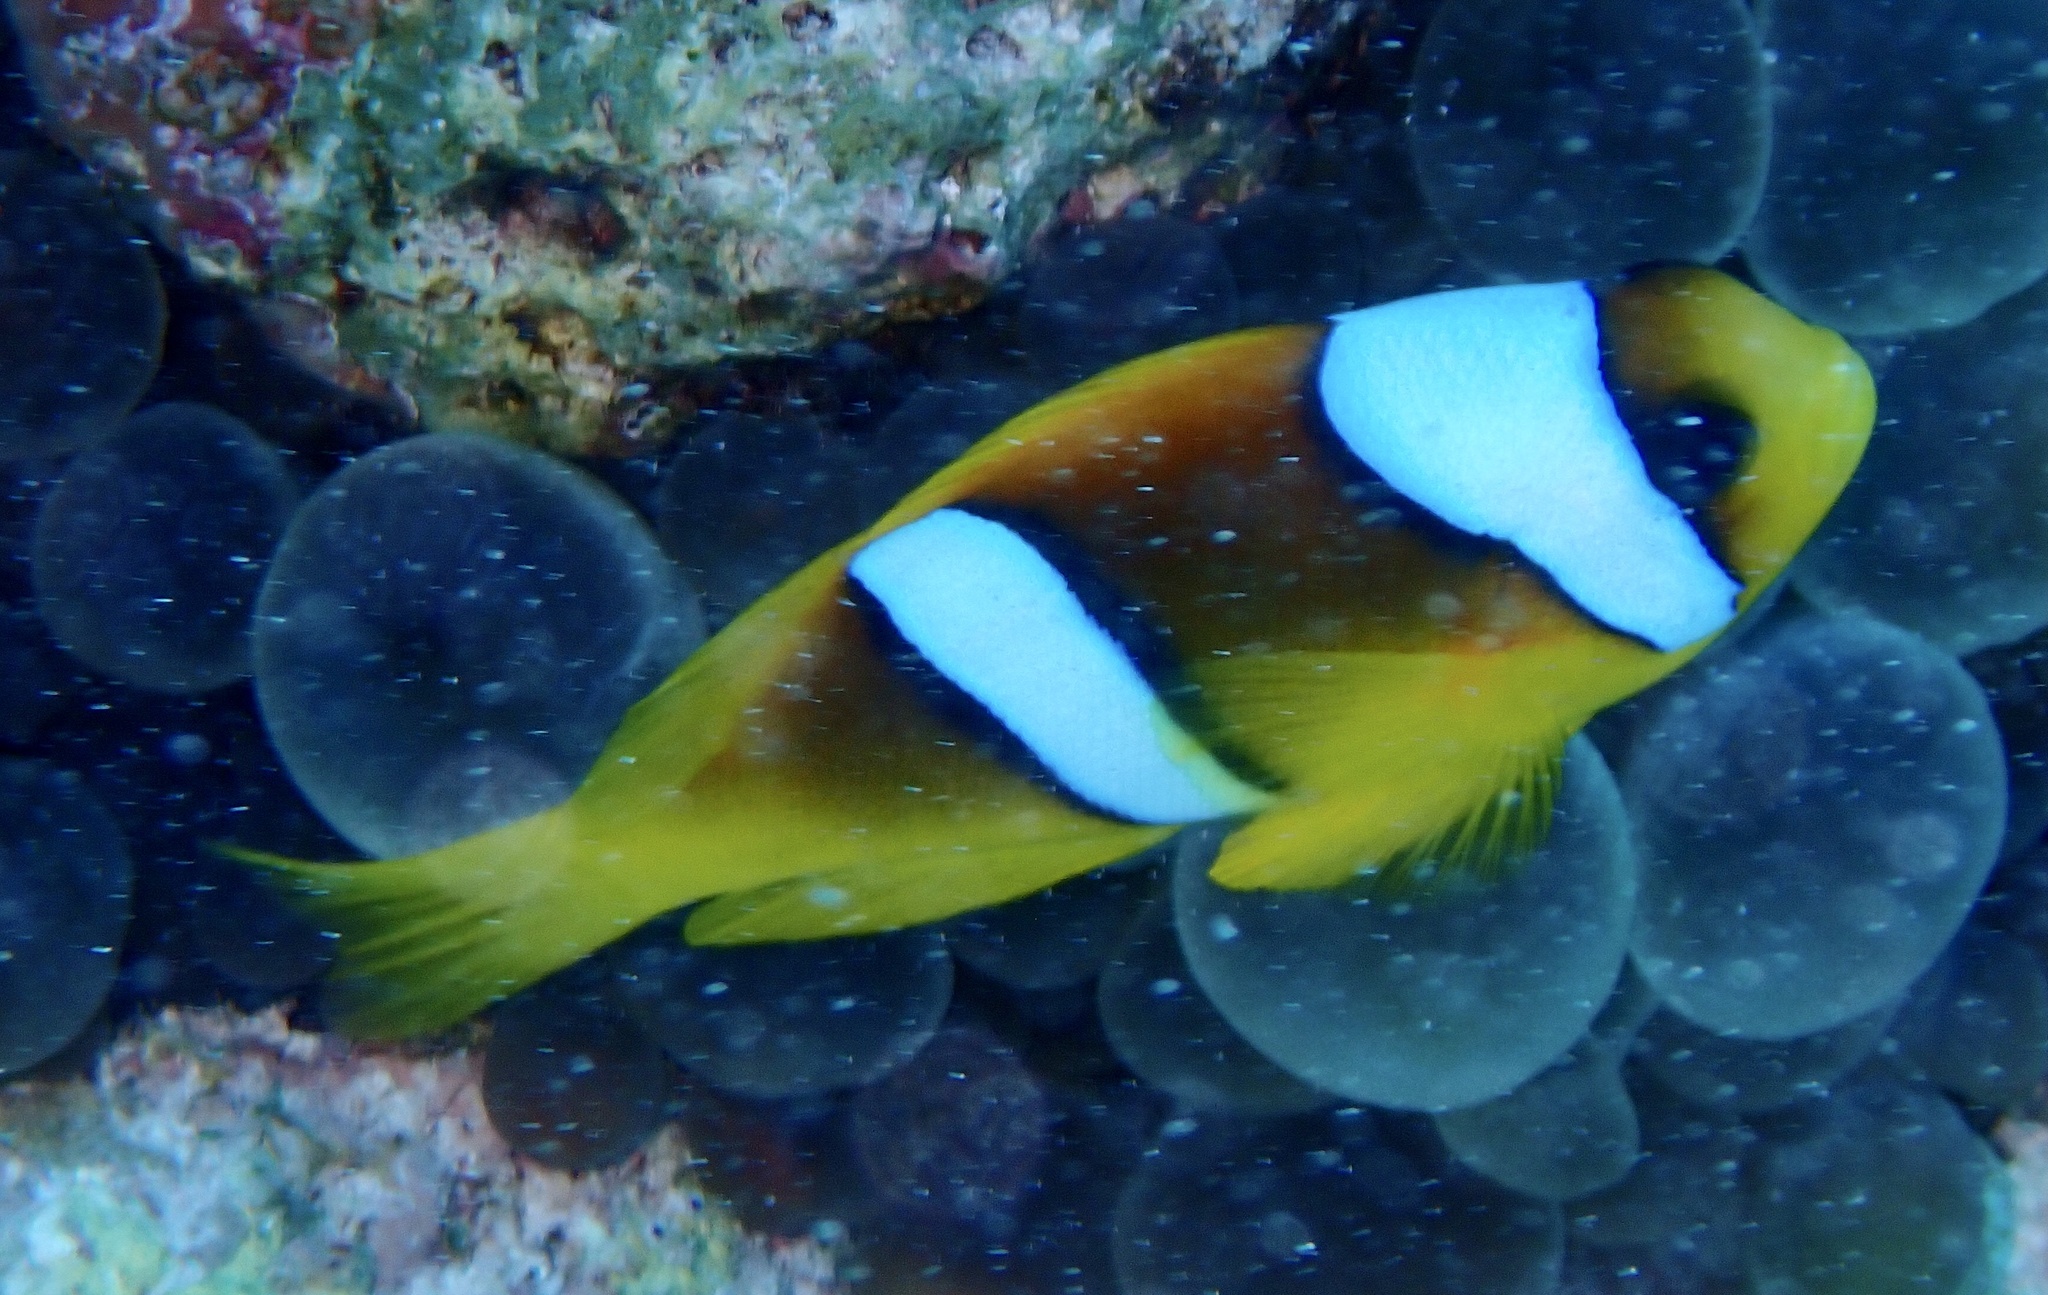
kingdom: Animalia
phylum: Chordata
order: Perciformes
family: Pomacentridae
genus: Amphiprion
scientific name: Amphiprion bicinctus
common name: Two-banded anemonefish
